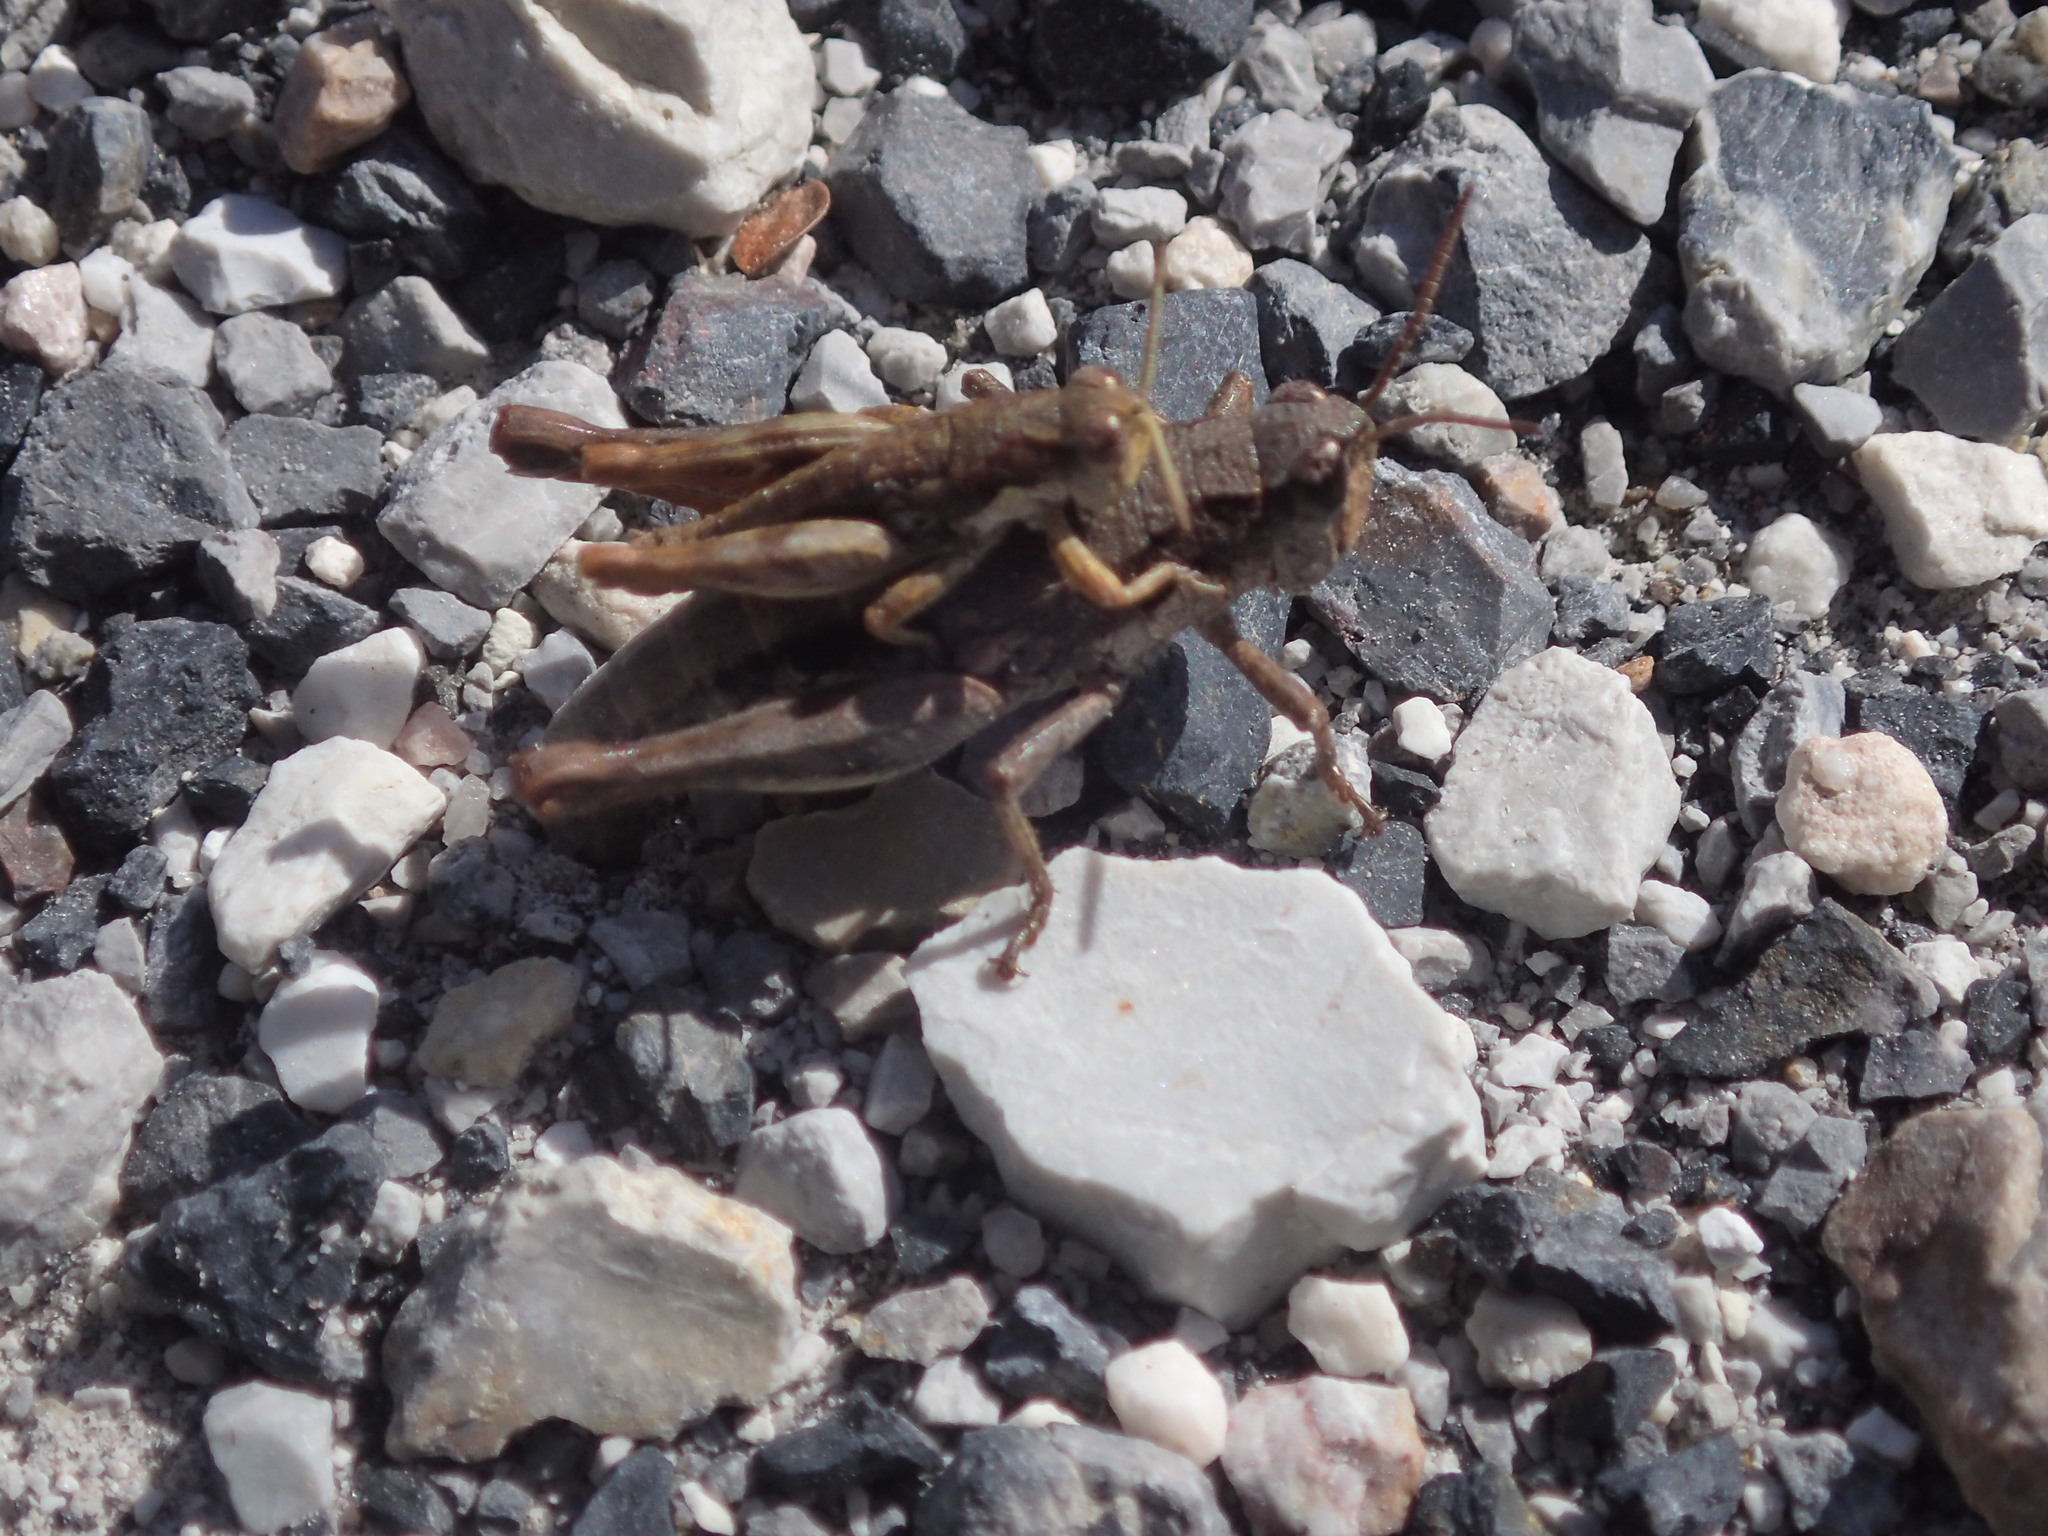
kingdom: Animalia
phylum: Arthropoda
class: Insecta
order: Orthoptera
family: Acrididae
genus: Tasmaniacris
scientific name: Tasmaniacris tasmaniensis
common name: Tasmanian grasshopper
